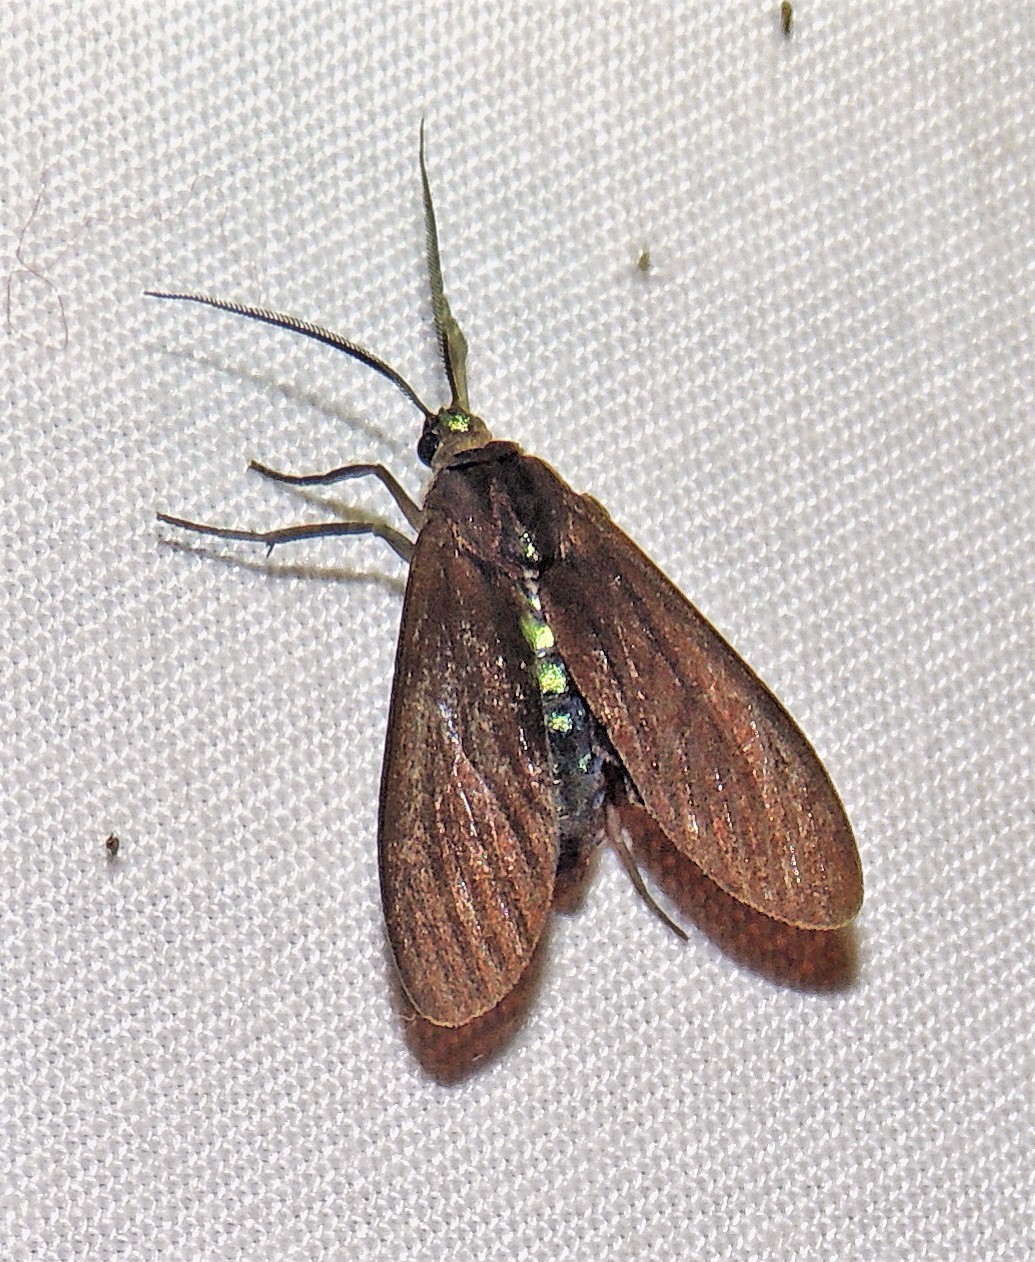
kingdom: Animalia
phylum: Arthropoda
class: Insecta
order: Lepidoptera
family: Erebidae
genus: Aclytia
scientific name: Aclytia terra
